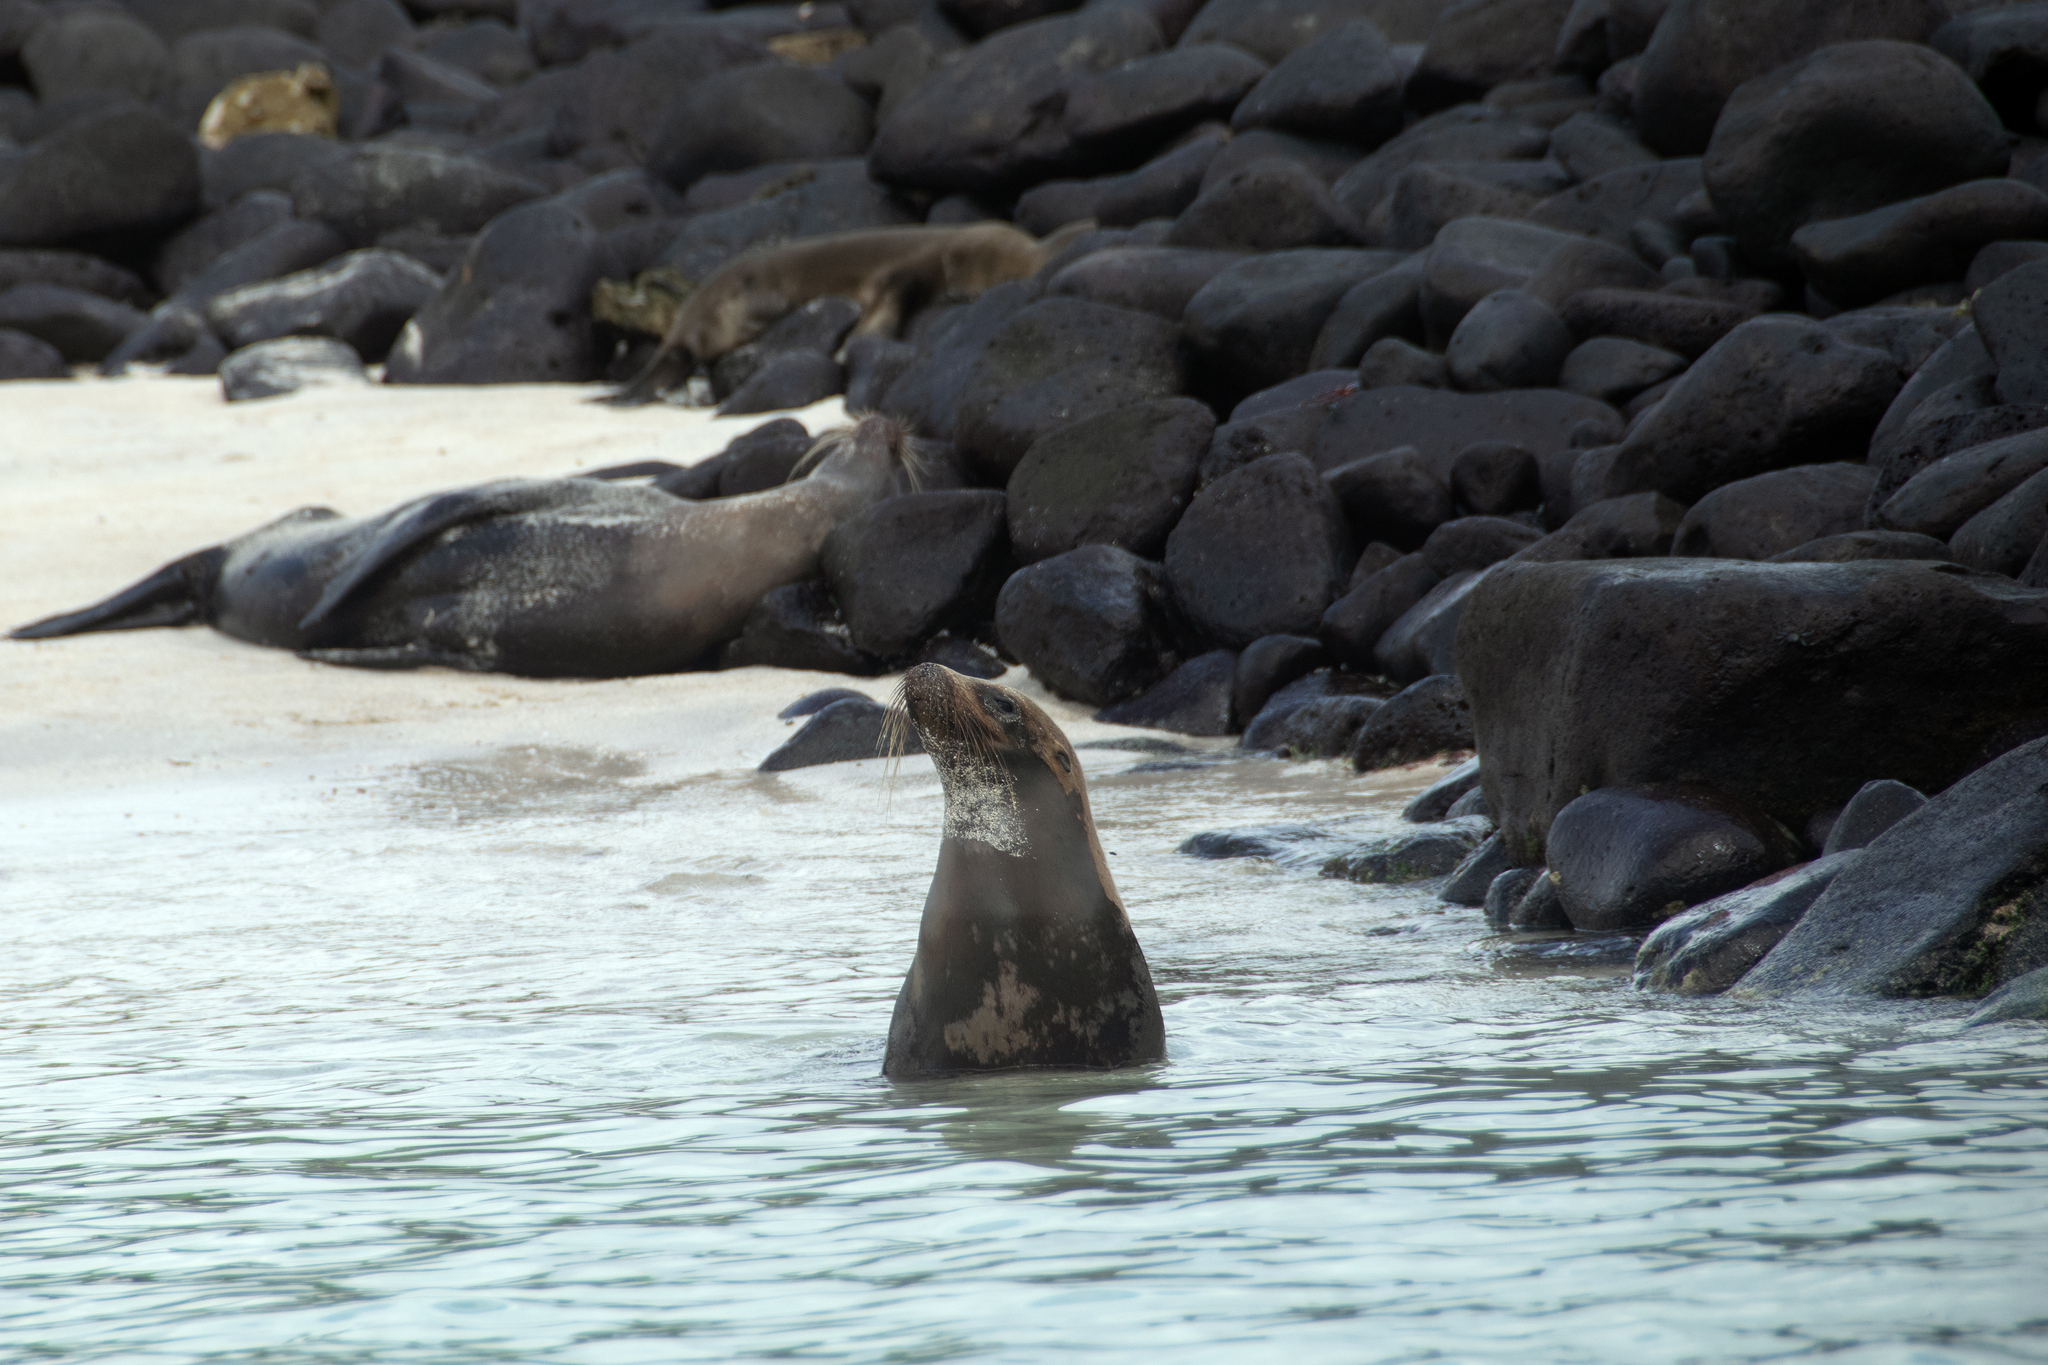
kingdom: Animalia
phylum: Chordata
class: Mammalia
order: Carnivora
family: Otariidae
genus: Zalophus
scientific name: Zalophus wollebaeki
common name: Galapagos sea lion
